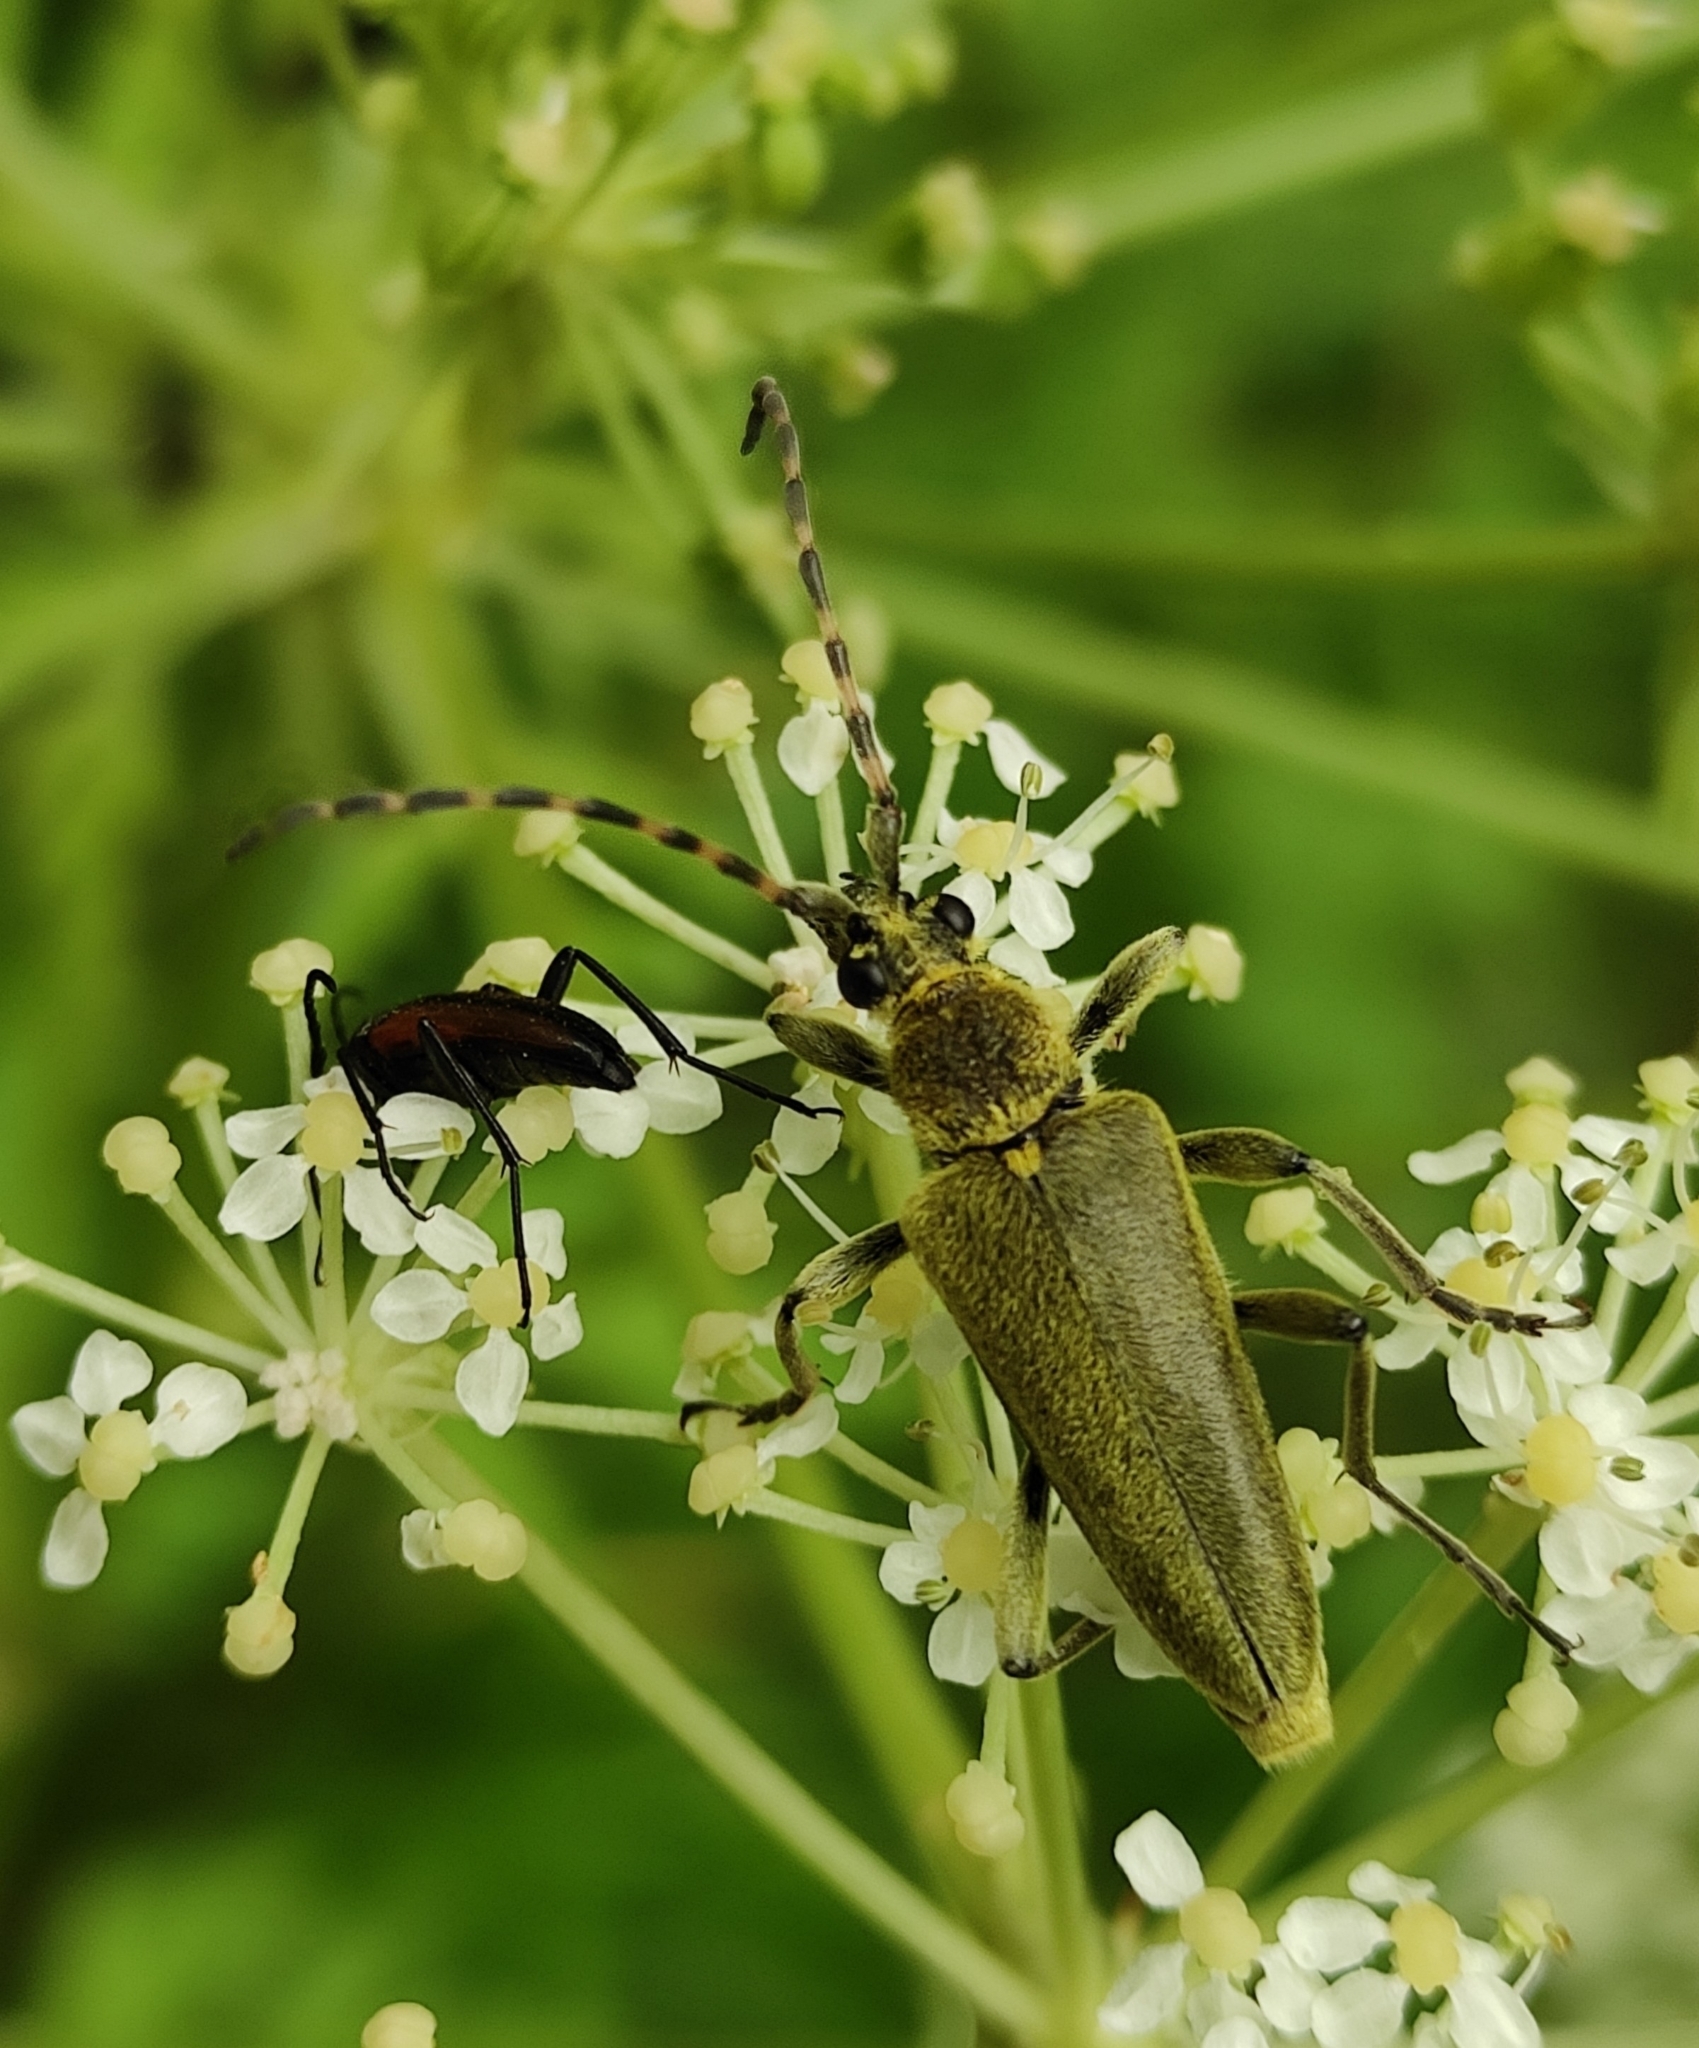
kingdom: Animalia
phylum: Arthropoda
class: Insecta
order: Coleoptera
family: Cerambycidae
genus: Lepturobosca
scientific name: Lepturobosca virens
